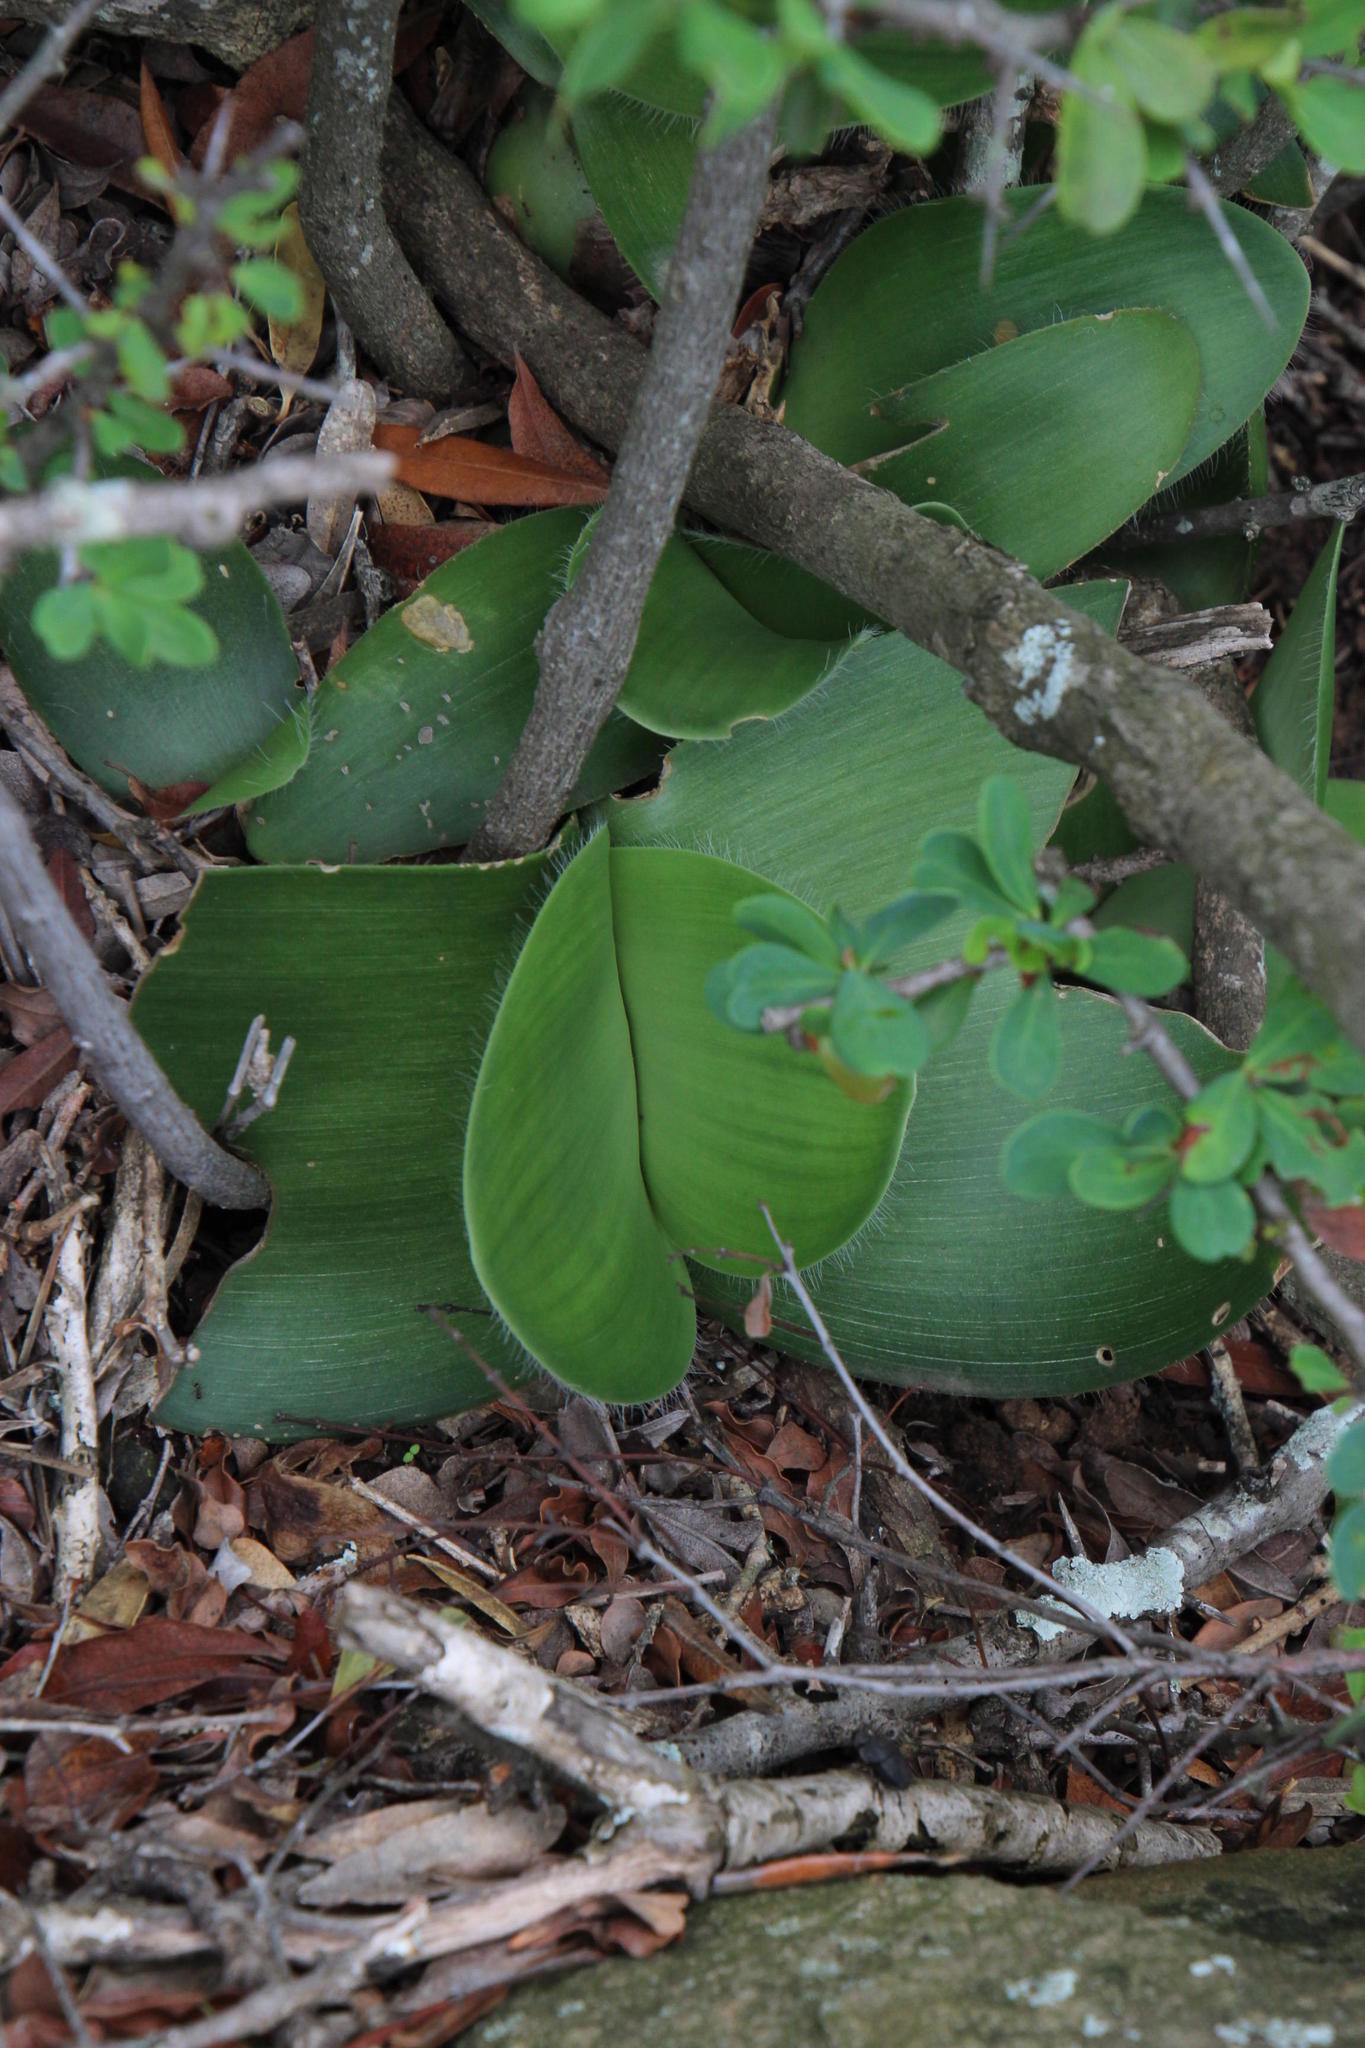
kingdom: Plantae
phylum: Tracheophyta
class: Liliopsida
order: Asparagales
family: Amaryllidaceae
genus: Haemanthus
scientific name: Haemanthus humilis
